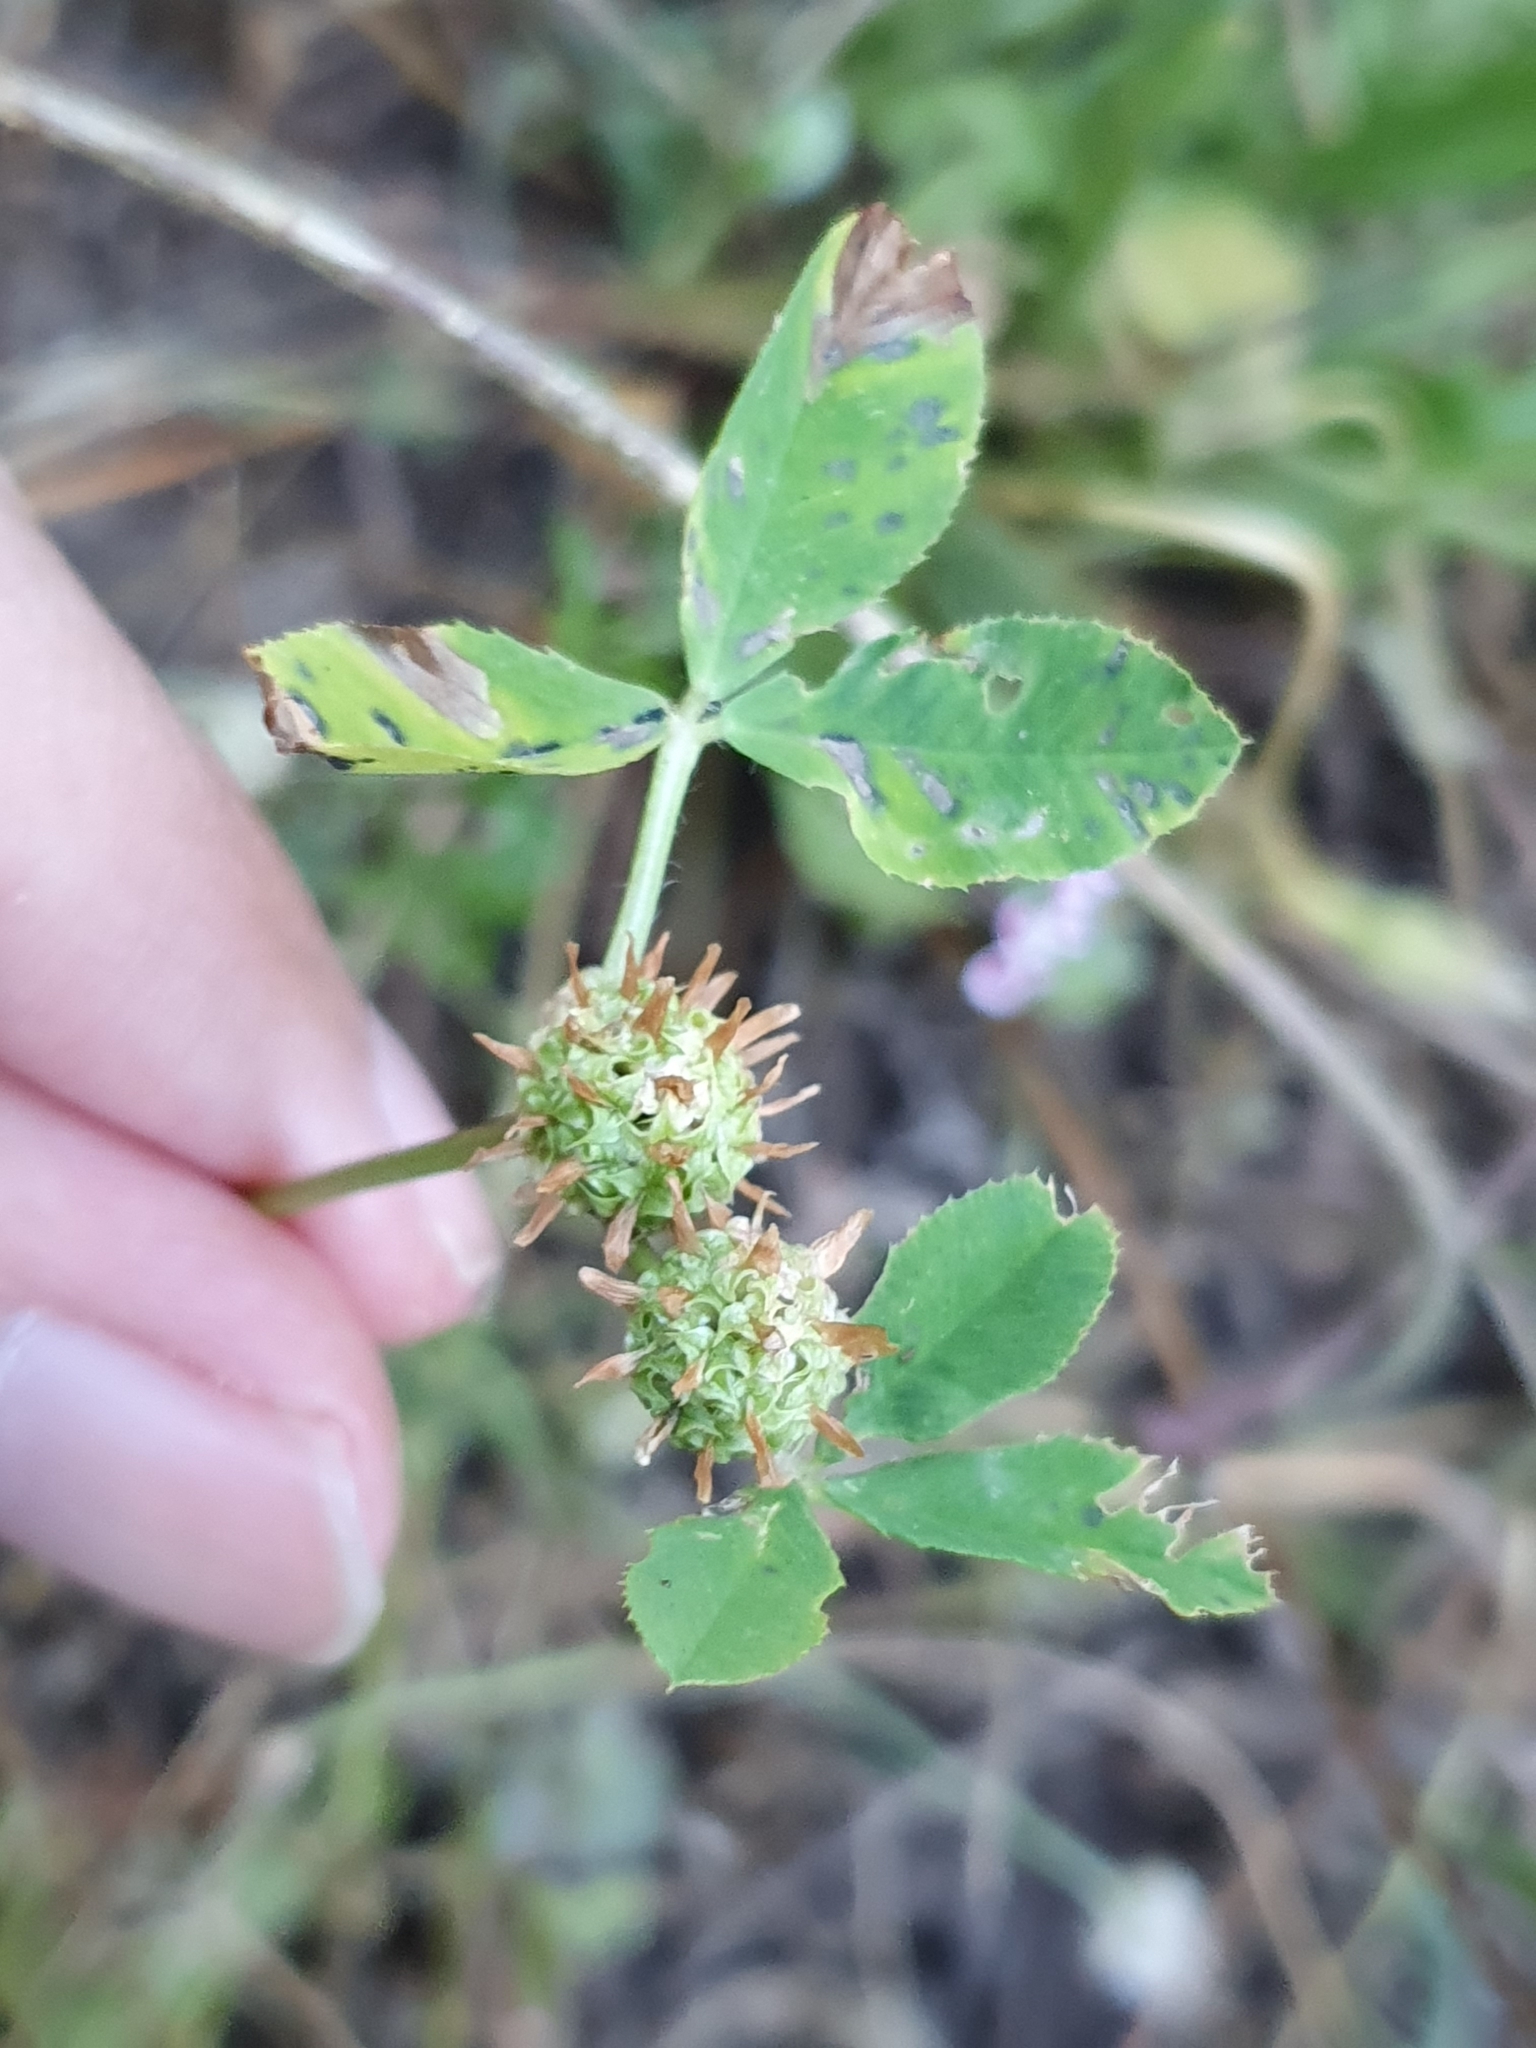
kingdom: Plantae
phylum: Tracheophyta
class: Magnoliopsida
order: Fabales
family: Fabaceae
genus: Trifolium
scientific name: Trifolium glomeratum
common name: Clustered clover
